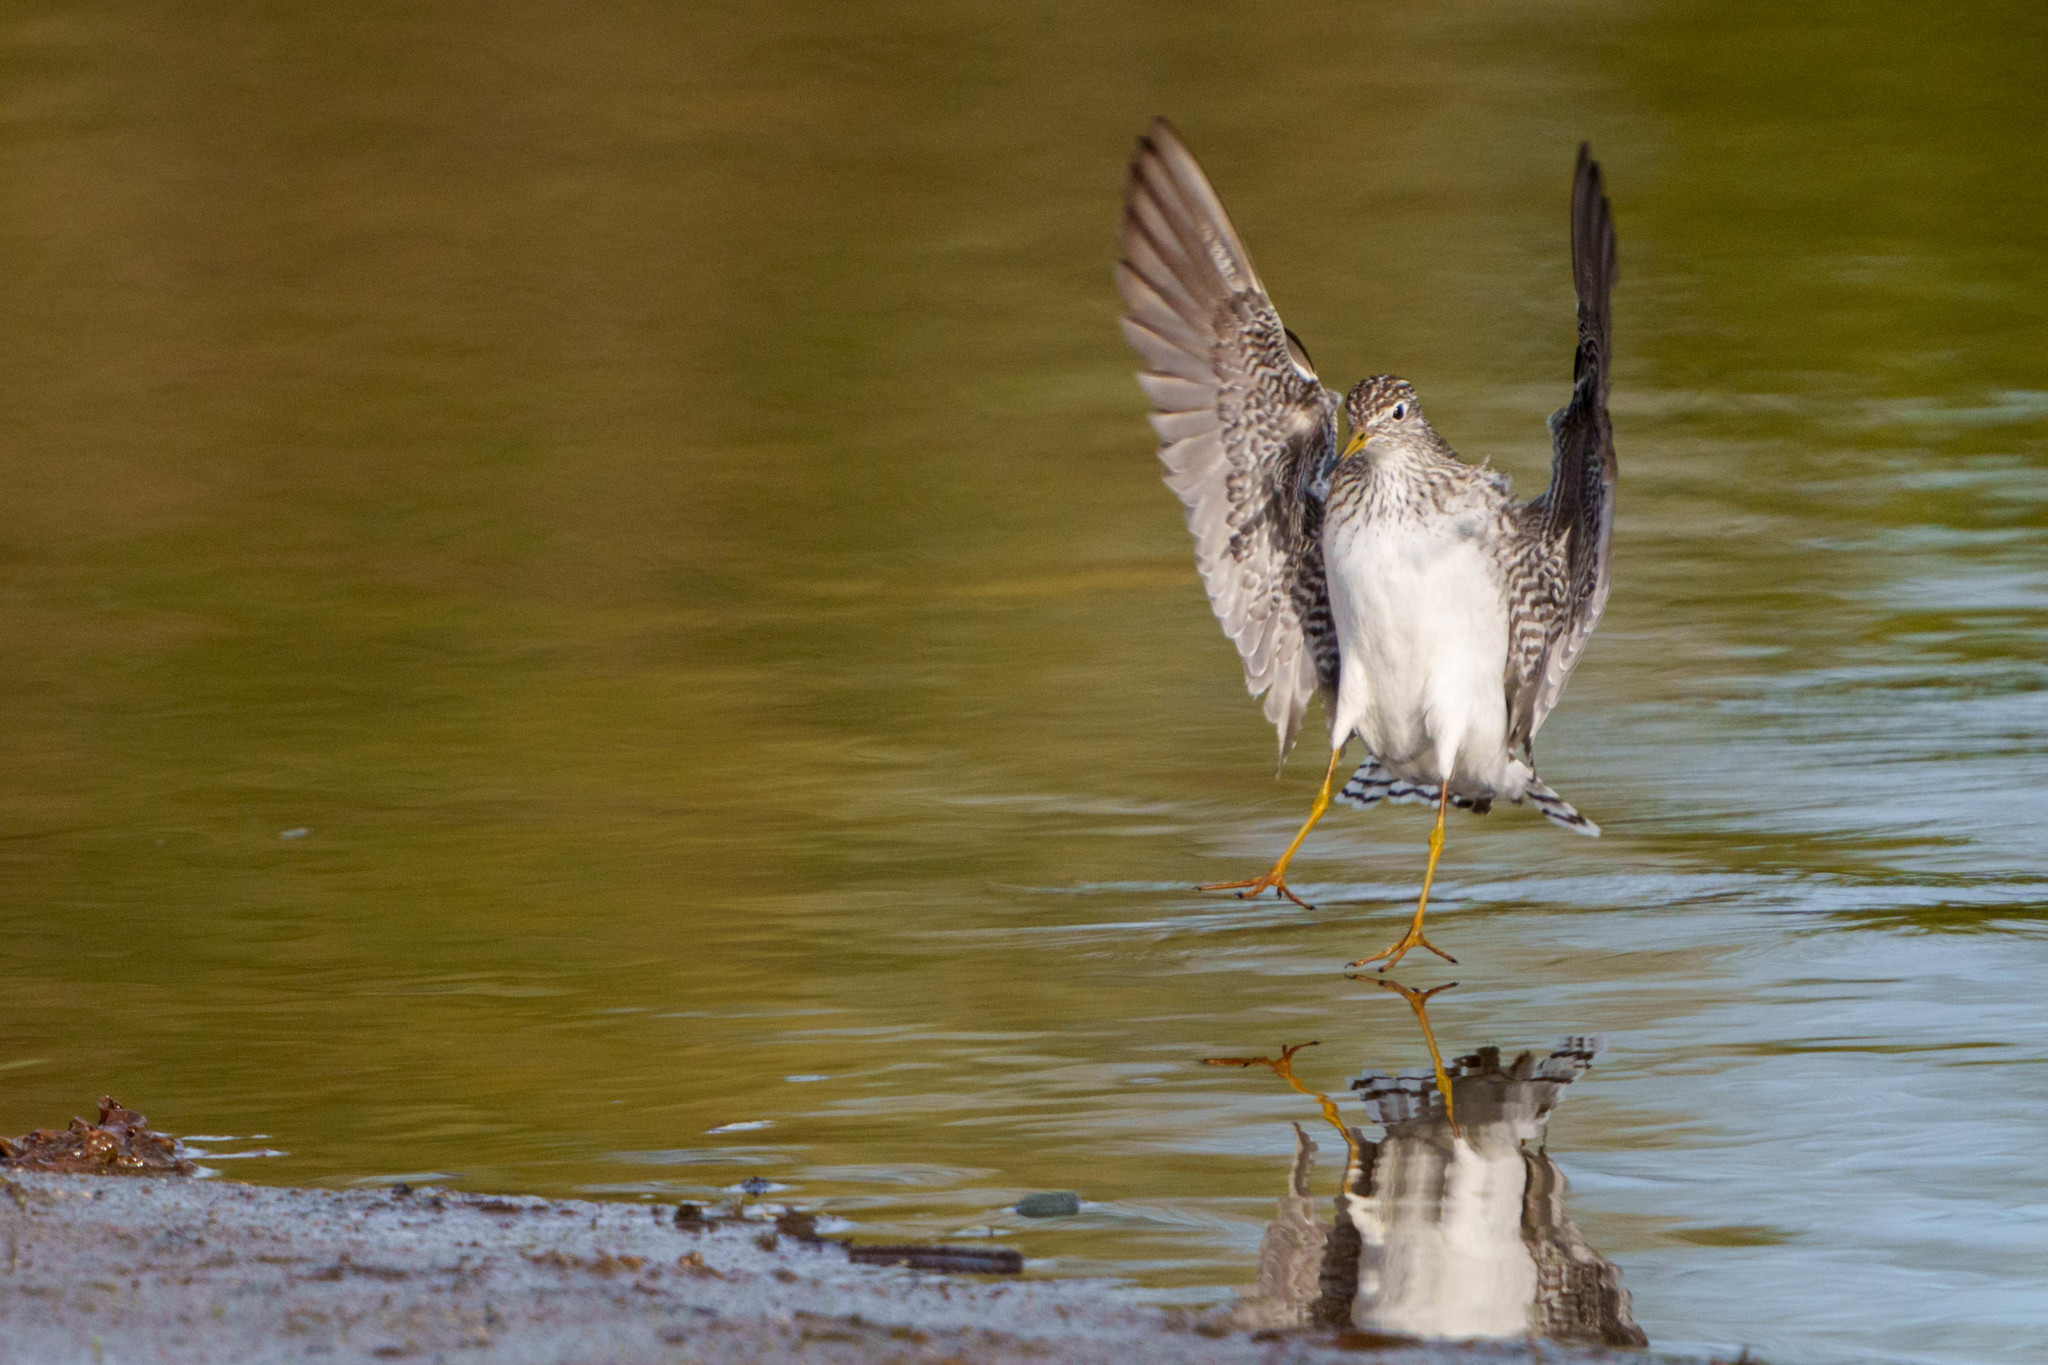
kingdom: Animalia
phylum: Chordata
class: Aves
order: Charadriiformes
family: Scolopacidae
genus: Tringa
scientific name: Tringa solitaria
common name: Solitary sandpiper
